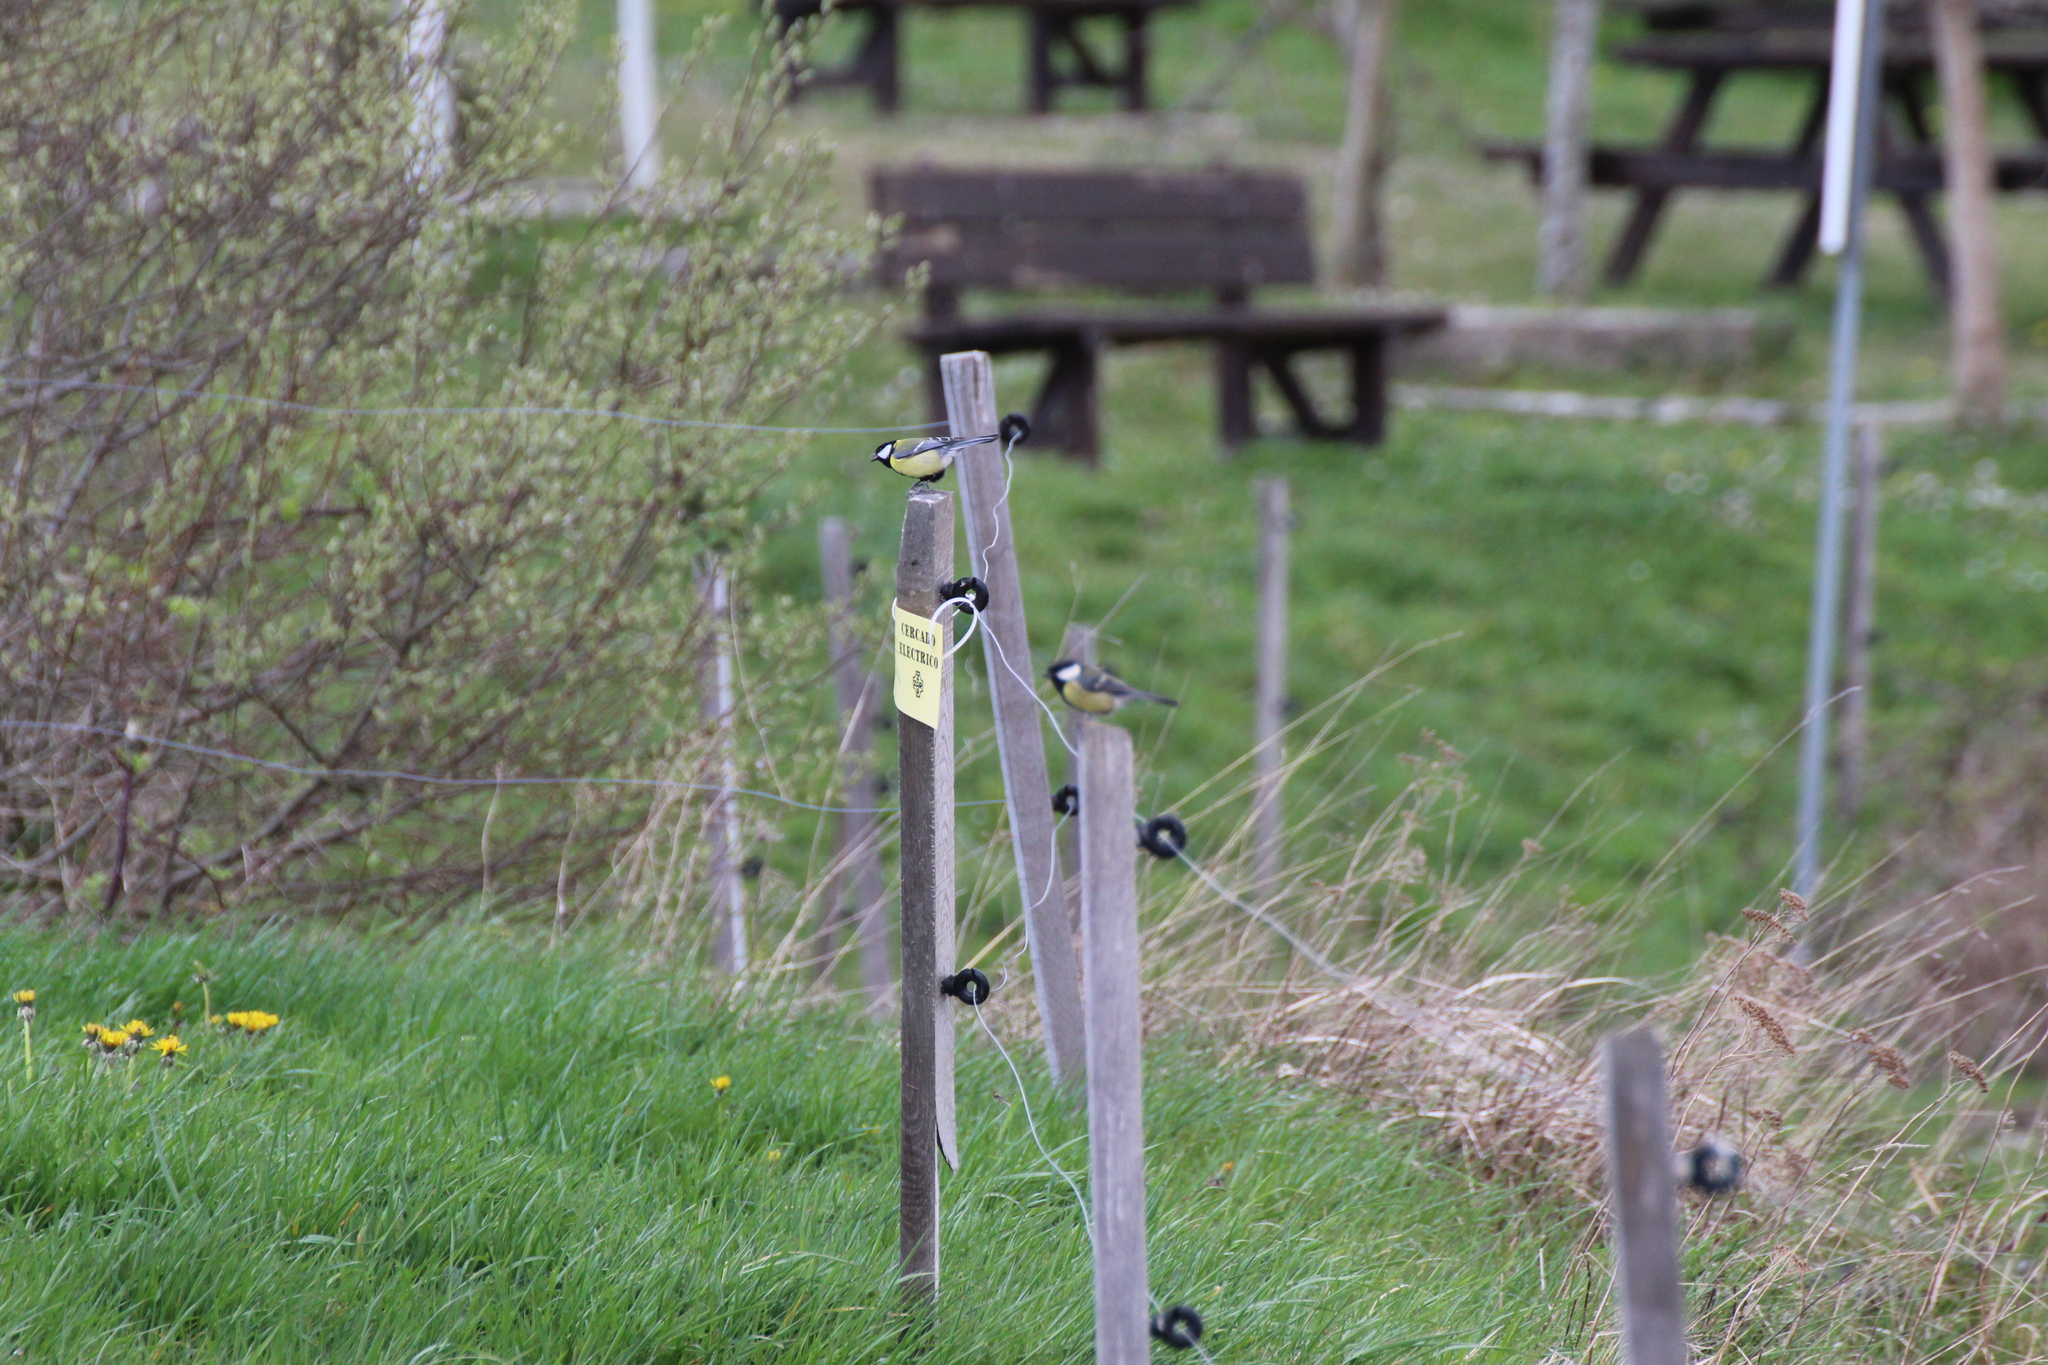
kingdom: Animalia
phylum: Chordata
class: Aves
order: Passeriformes
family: Paridae
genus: Parus
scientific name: Parus major
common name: Great tit
